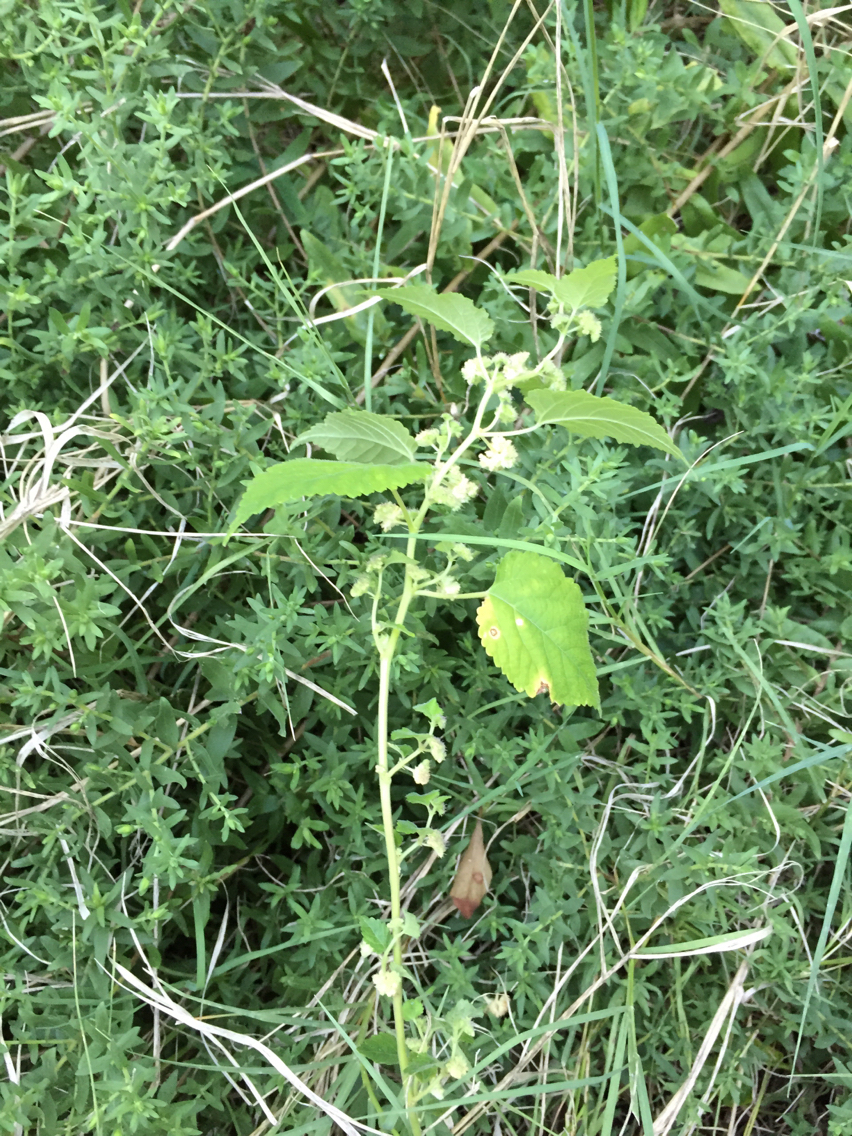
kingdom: Plantae
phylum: Tracheophyta
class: Magnoliopsida
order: Rosales
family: Moraceae
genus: Fatoua
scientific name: Fatoua villosa
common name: Hairy crabweed
